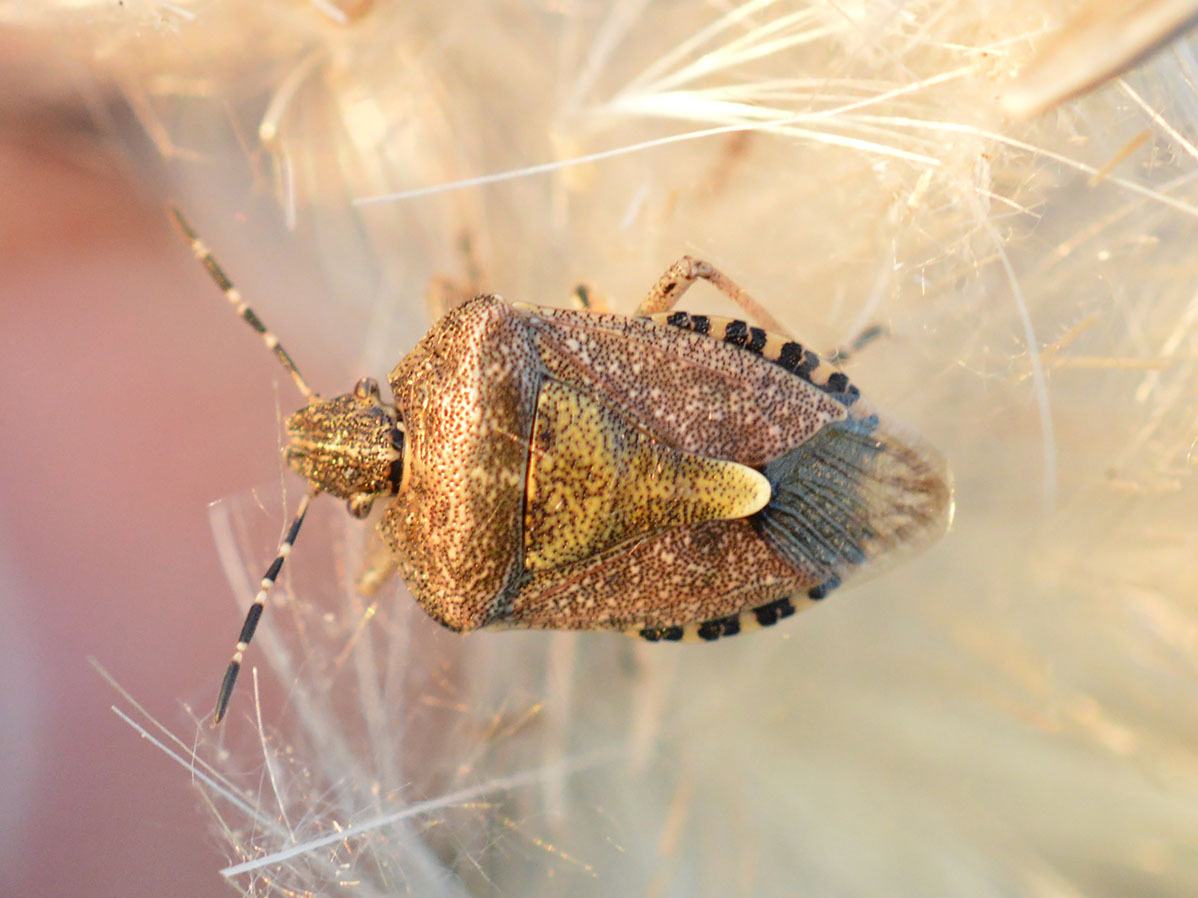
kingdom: Animalia
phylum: Arthropoda
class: Insecta
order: Hemiptera
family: Pentatomidae
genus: Dolycoris
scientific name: Dolycoris baccarum
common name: Sloe bug
